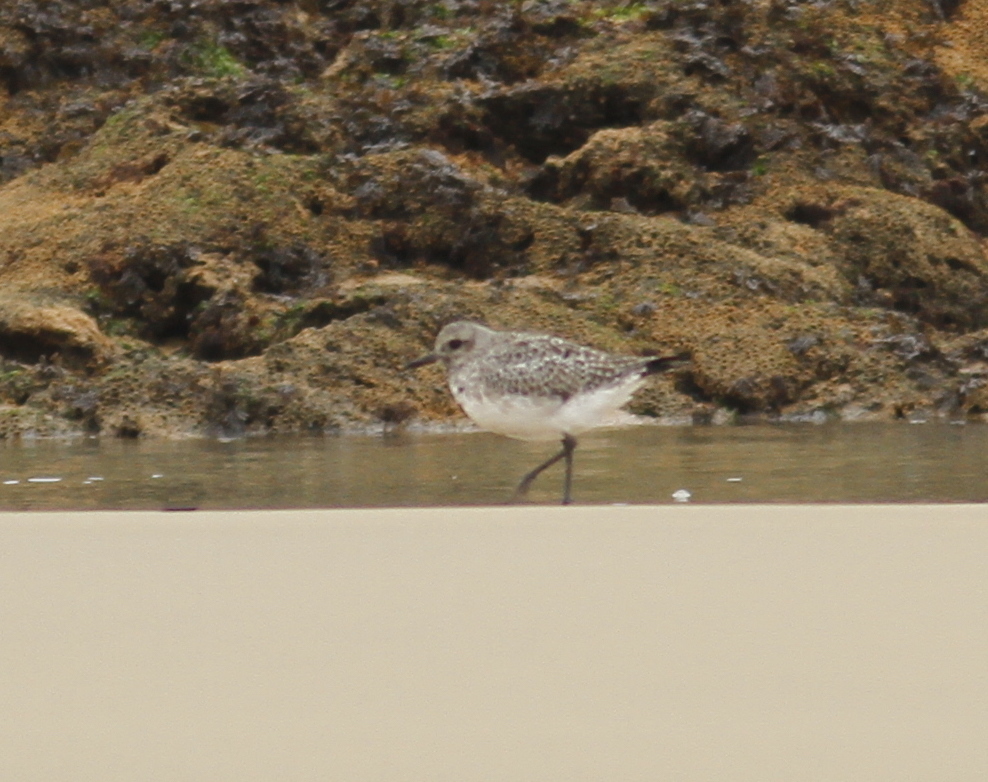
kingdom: Animalia
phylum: Chordata
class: Aves
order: Charadriiformes
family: Charadriidae
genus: Pluvialis
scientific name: Pluvialis squatarola
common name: Grey plover
